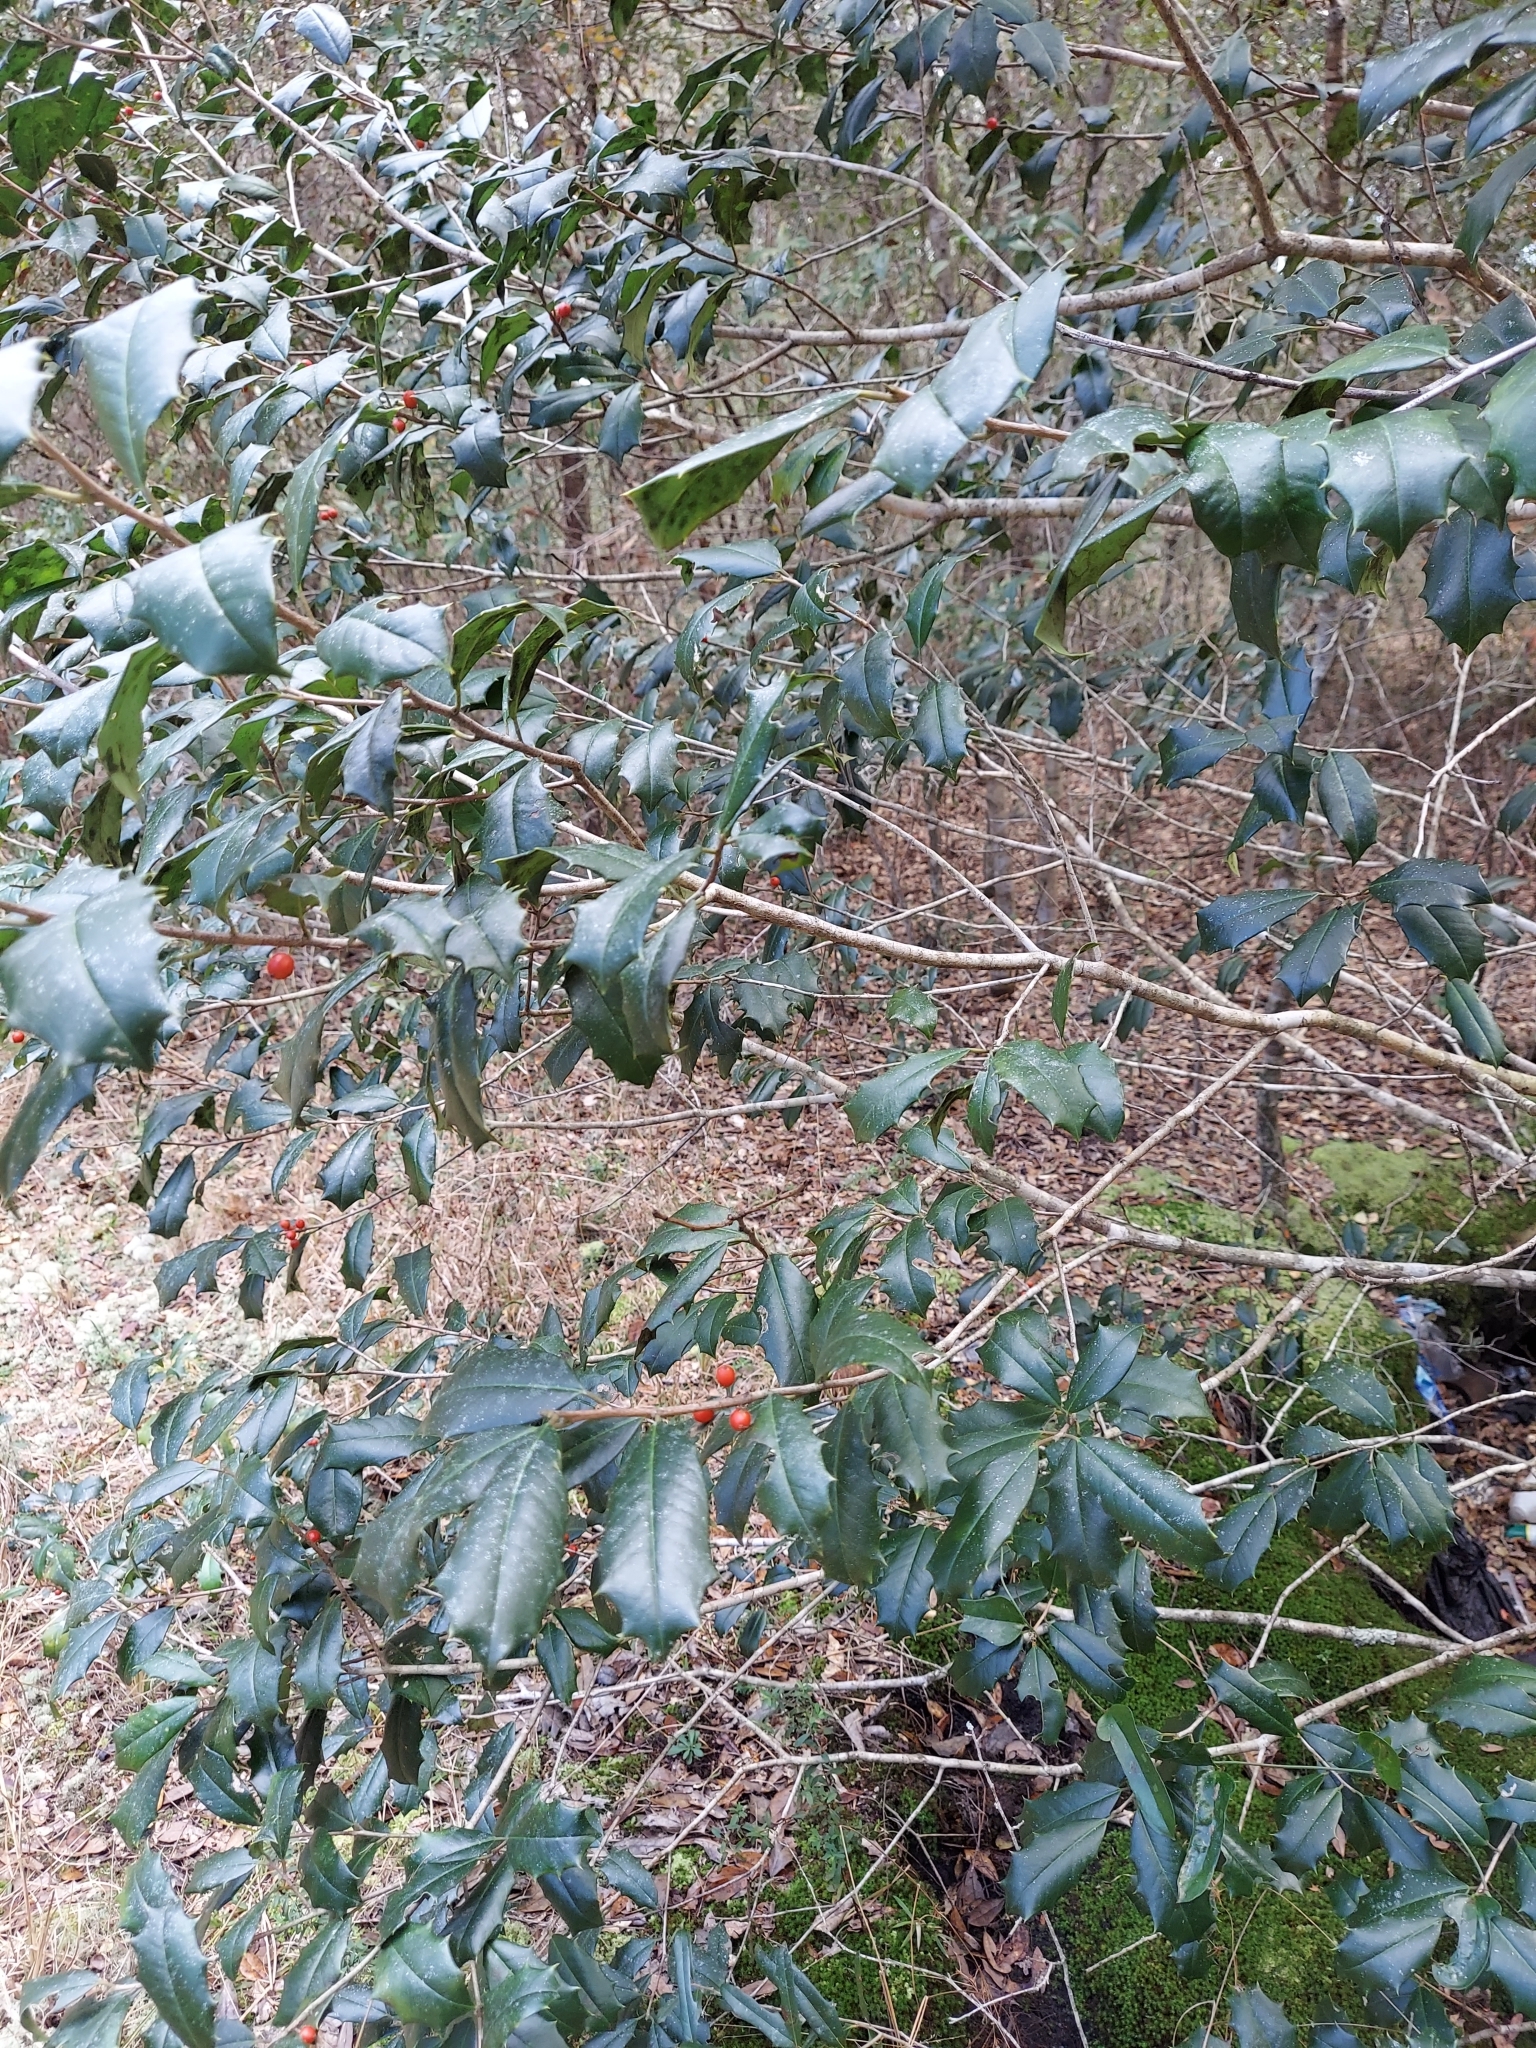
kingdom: Plantae
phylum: Tracheophyta
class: Magnoliopsida
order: Aquifoliales
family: Aquifoliaceae
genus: Ilex
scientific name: Ilex opaca
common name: American holly
